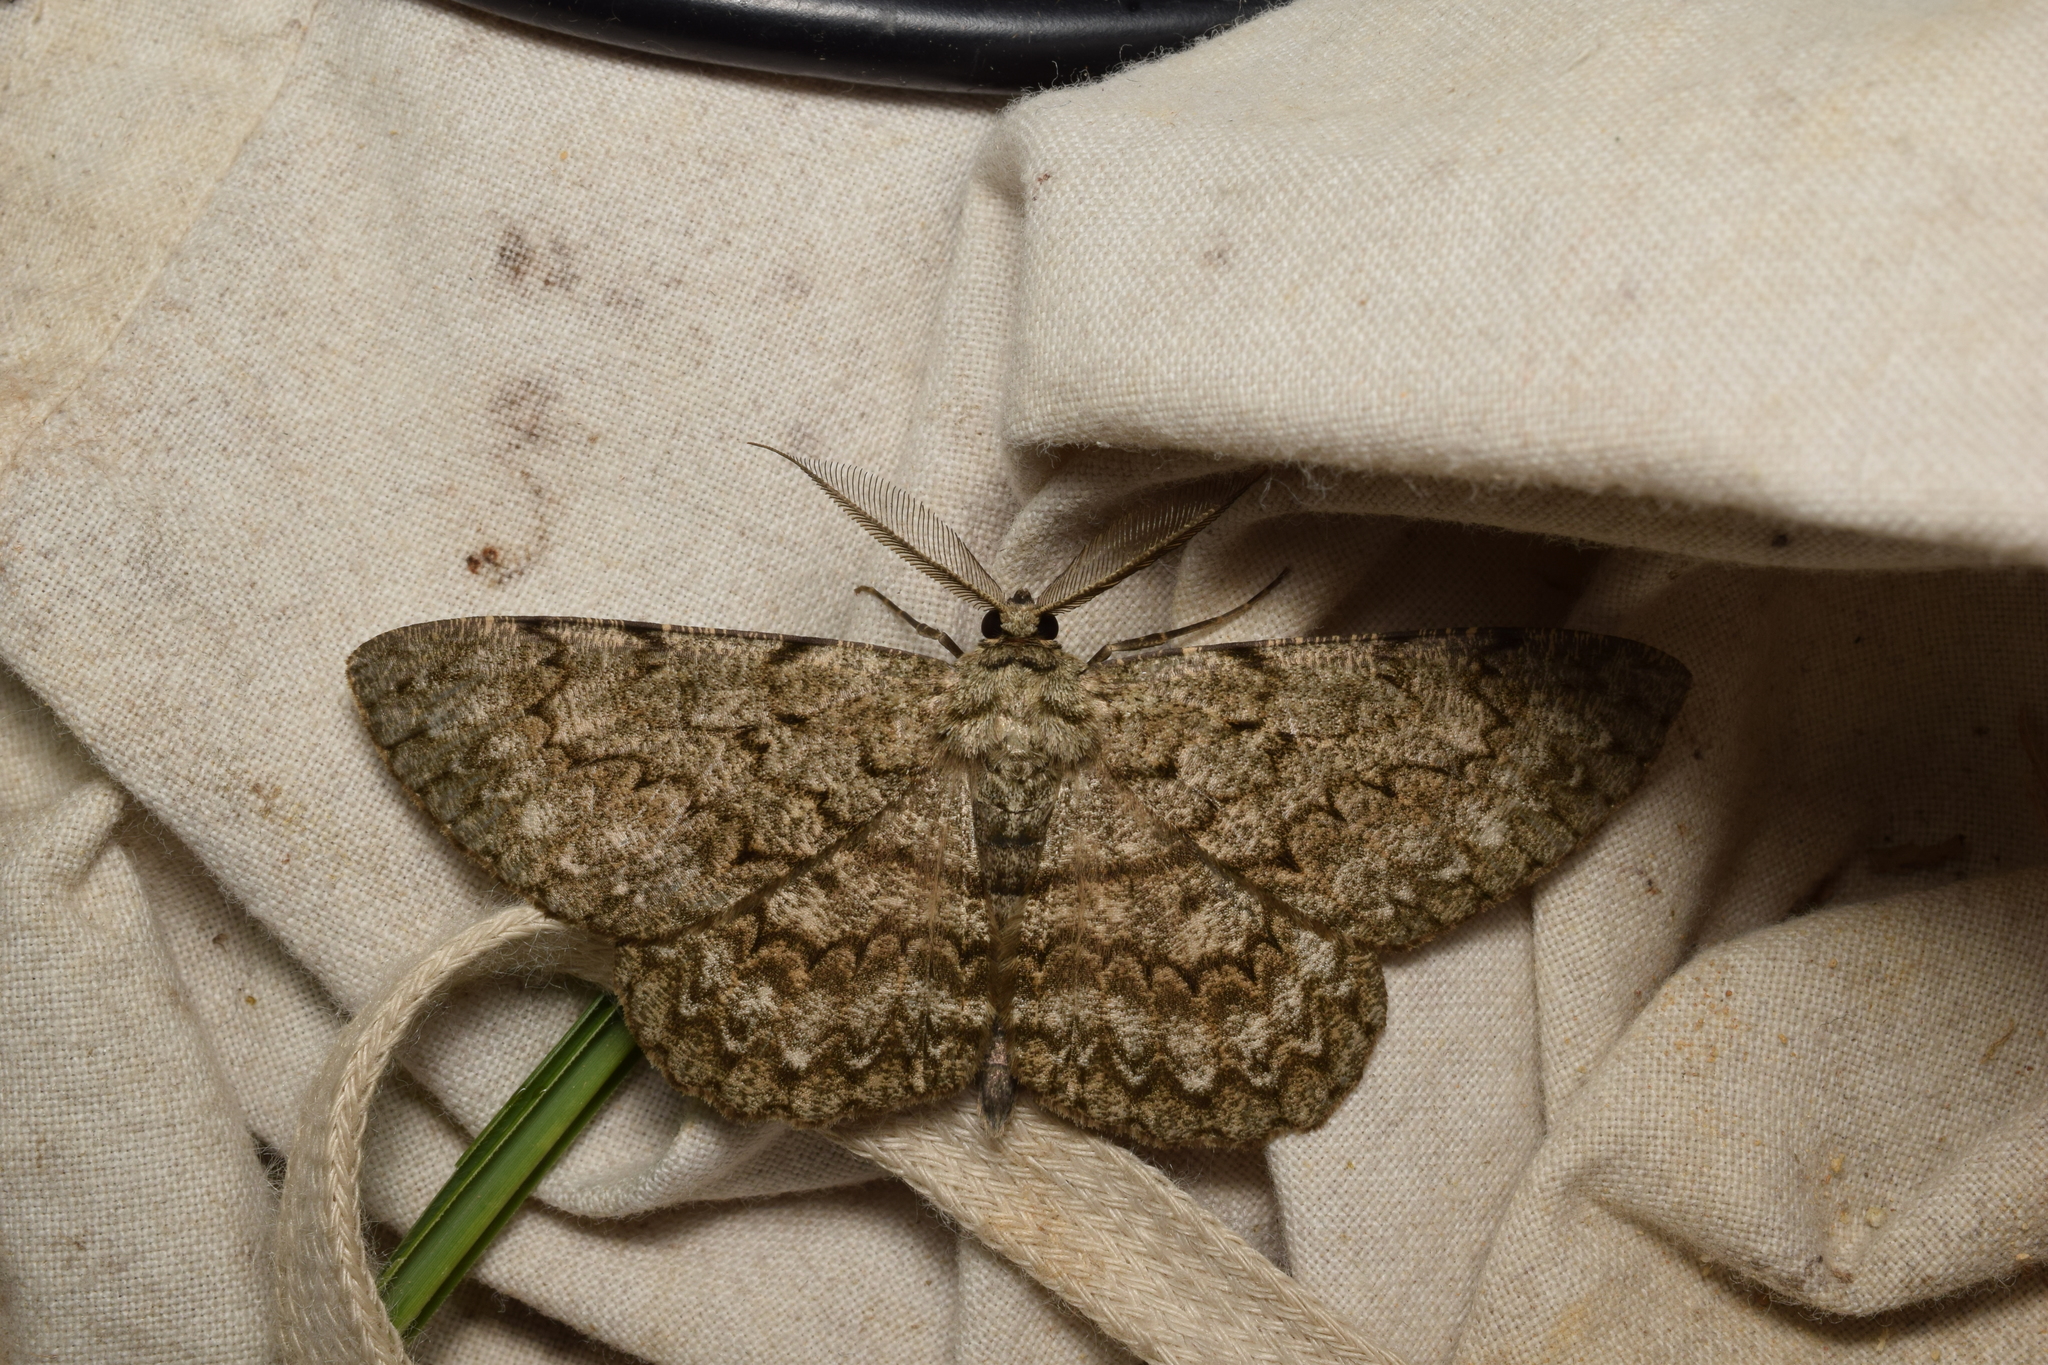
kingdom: Animalia
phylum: Arthropoda
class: Insecta
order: Lepidoptera
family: Geometridae
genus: Hypomecis
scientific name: Hypomecis lunifera
